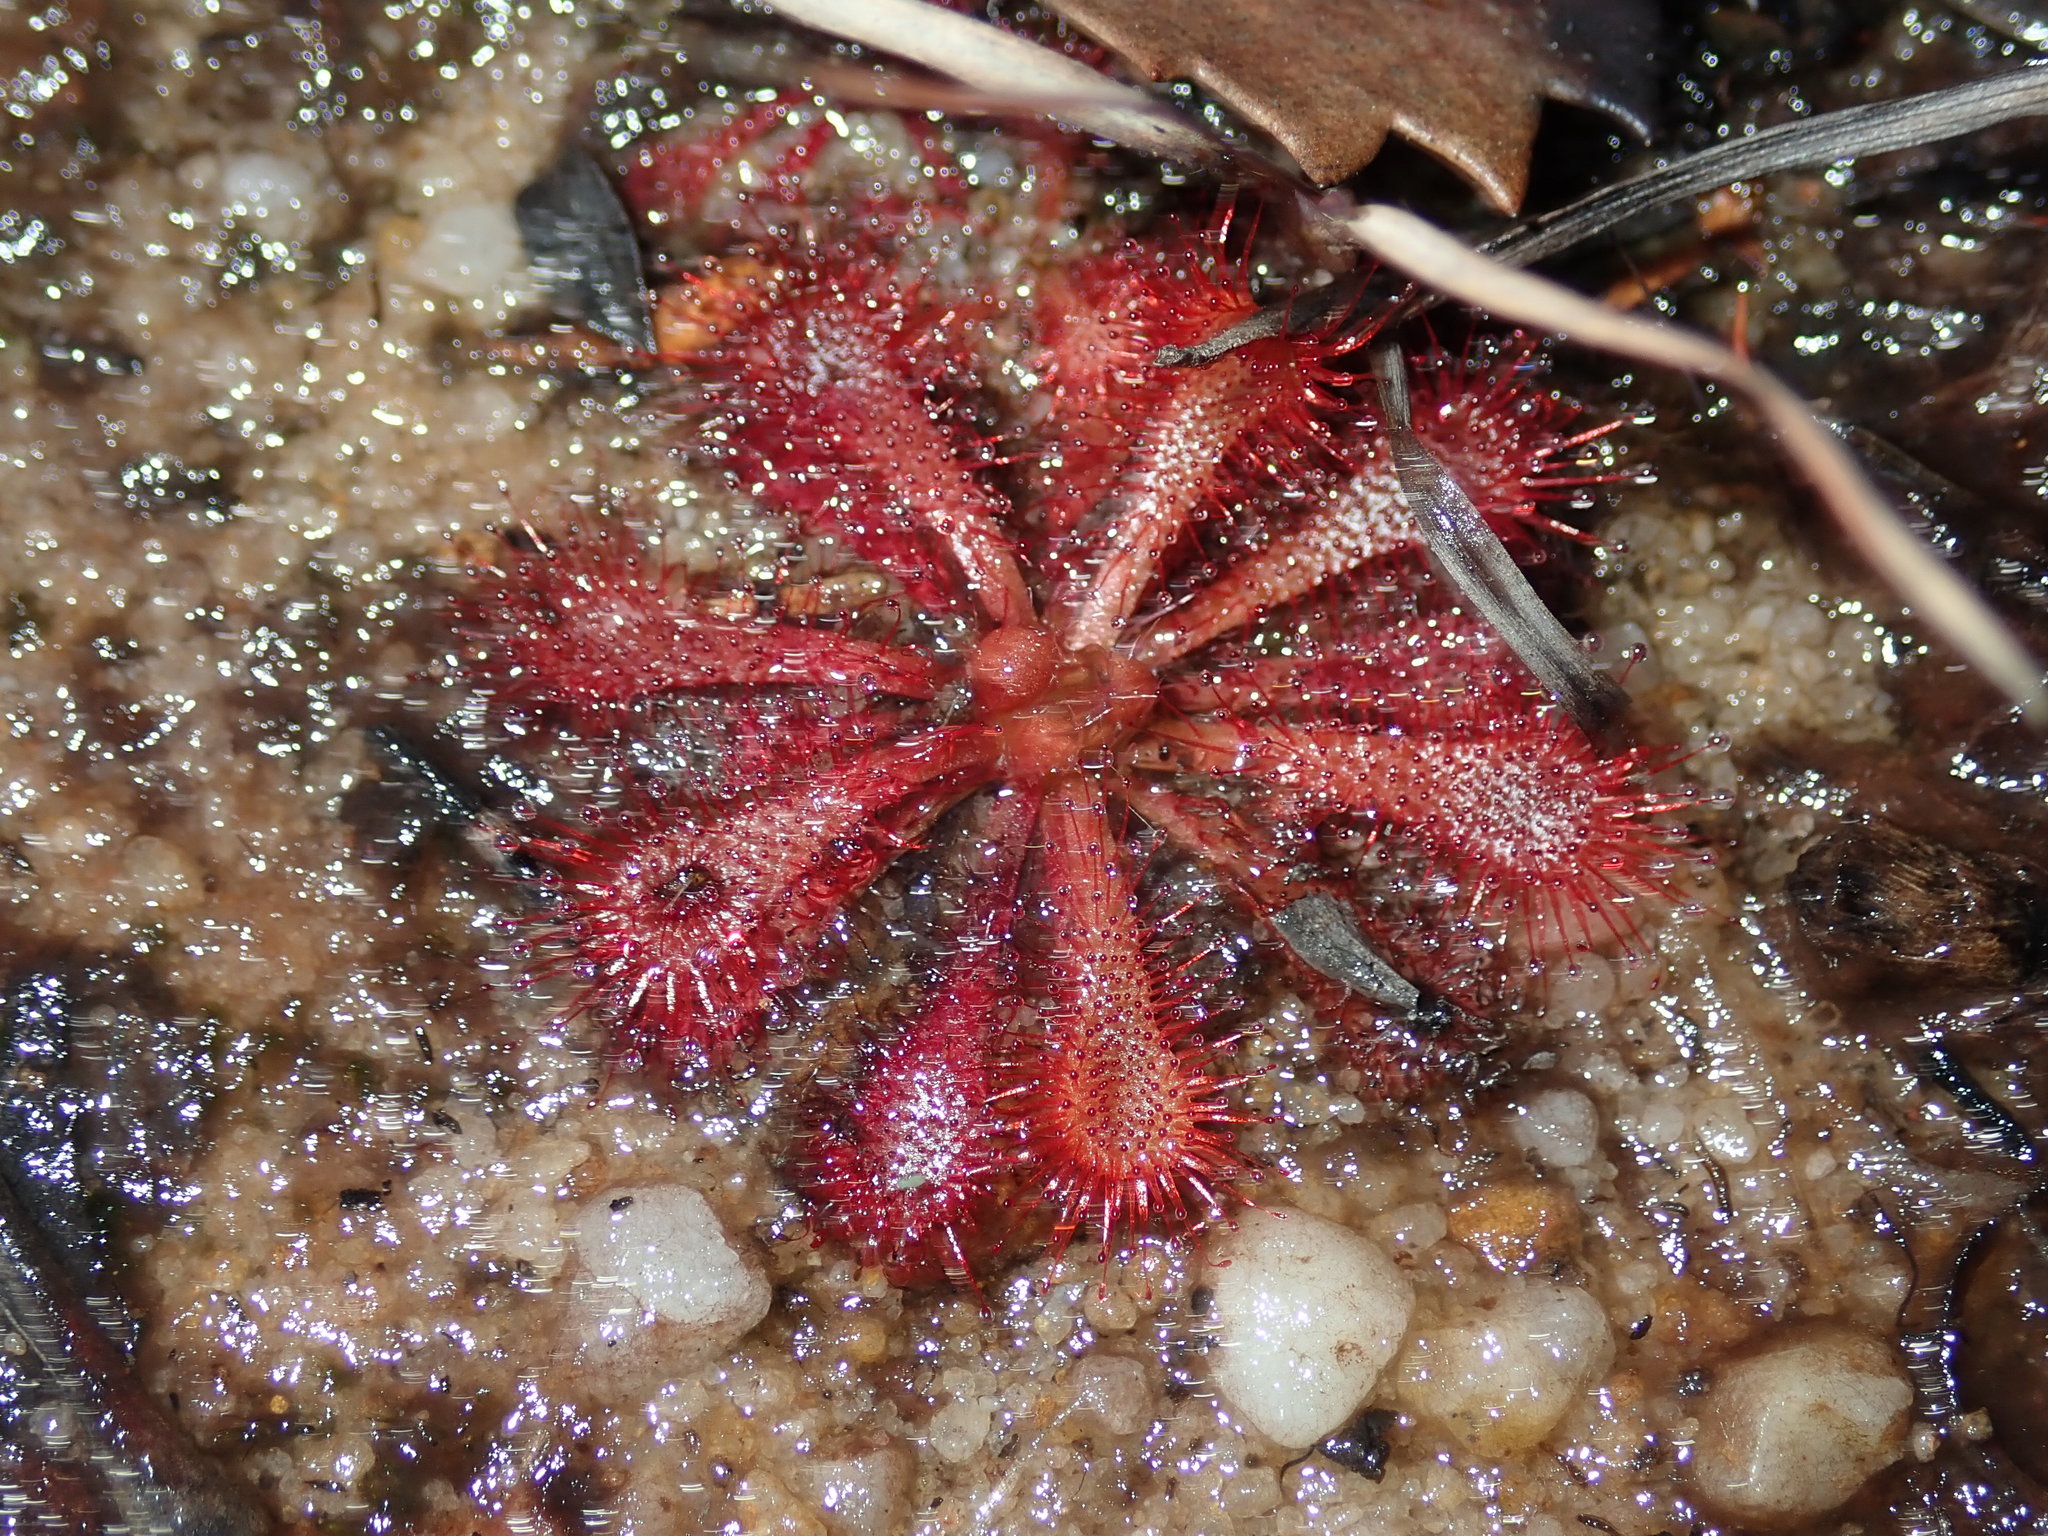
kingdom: Plantae
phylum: Tracheophyta
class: Magnoliopsida
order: Caryophyllales
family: Droseraceae
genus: Drosera
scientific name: Drosera spatulata
